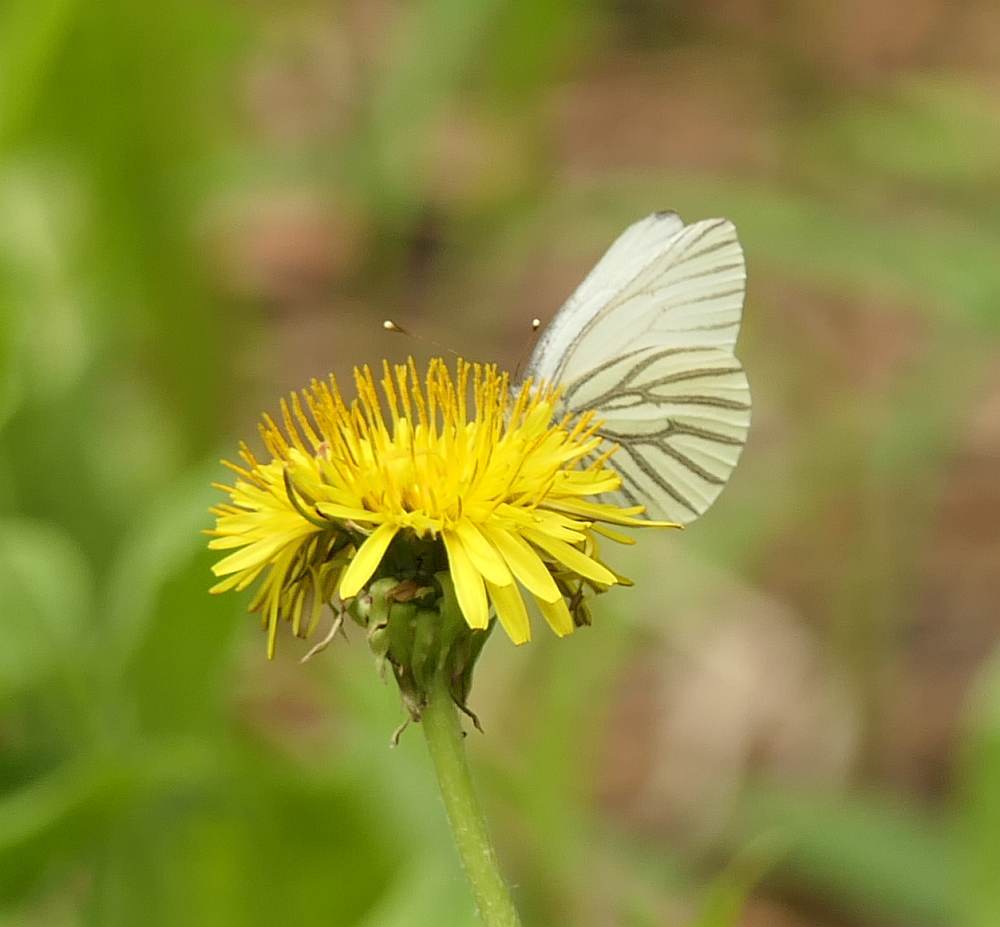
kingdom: Animalia
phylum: Arthropoda
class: Insecta
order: Lepidoptera
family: Pieridae
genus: Pieris
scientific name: Pieris oleracea
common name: Mustard white
